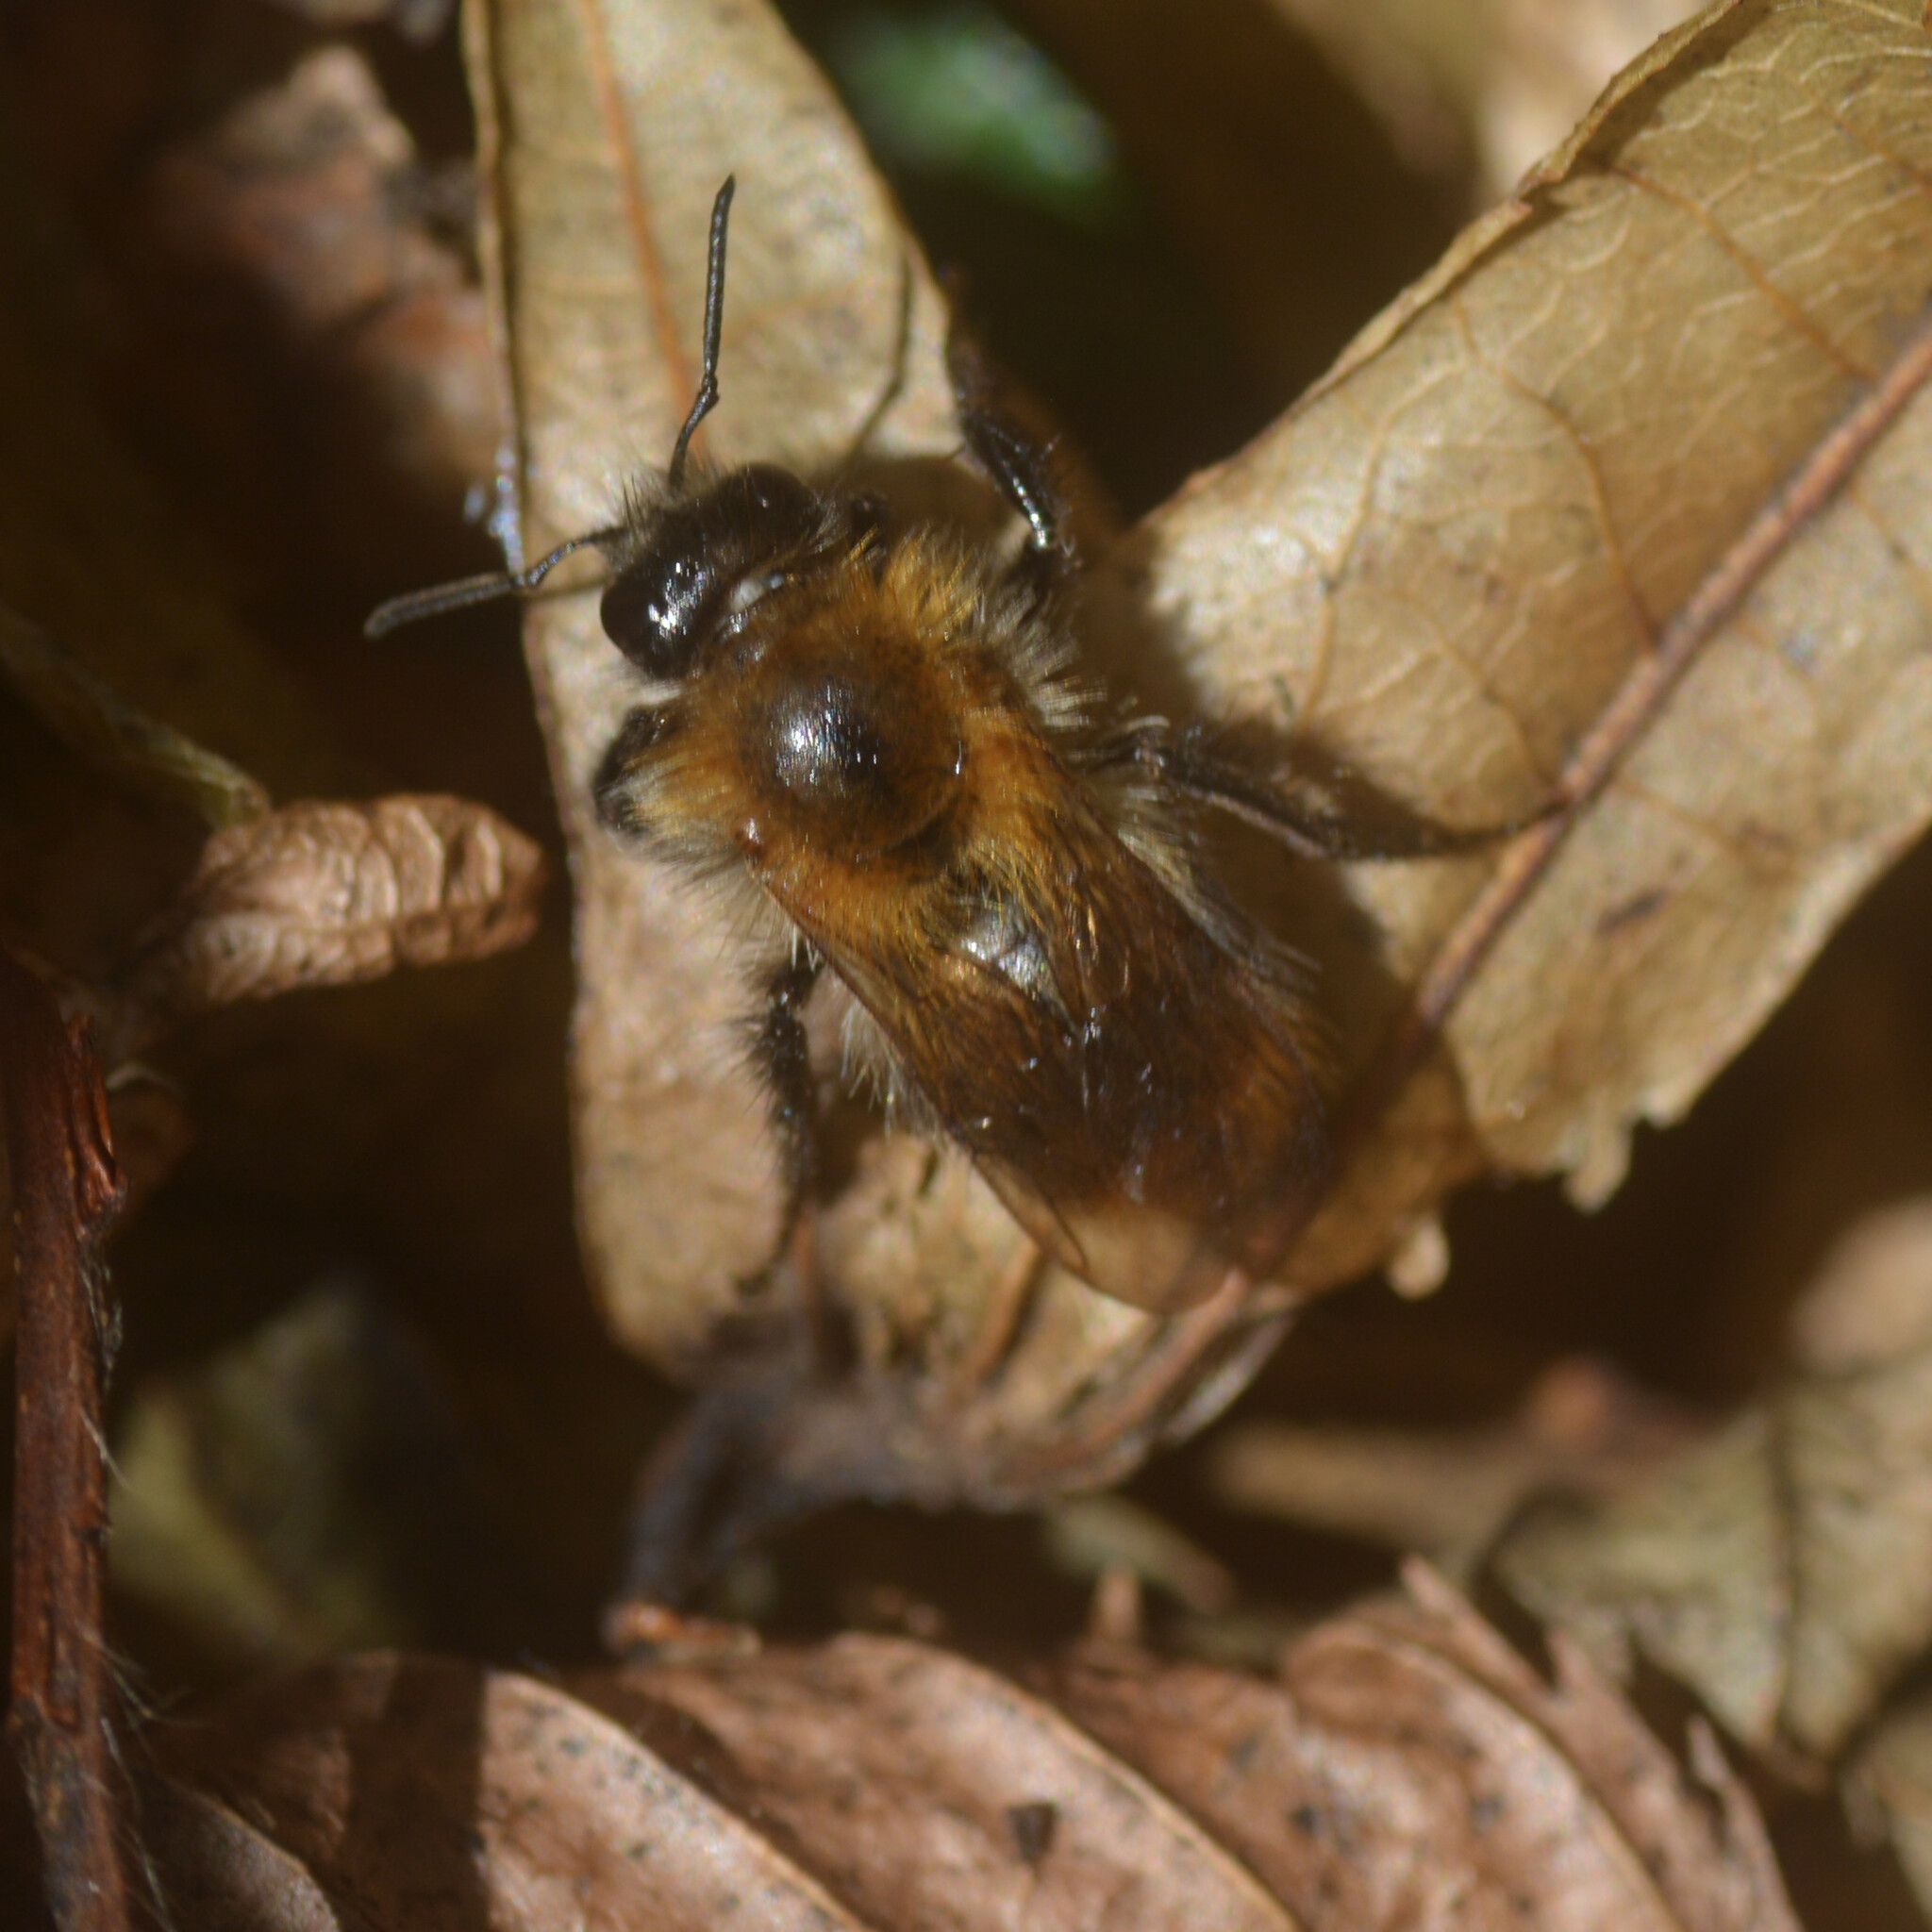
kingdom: Animalia
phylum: Arthropoda
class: Insecta
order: Hymenoptera
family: Apidae
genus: Bombus
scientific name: Bombus pascuorum
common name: Common carder bee
